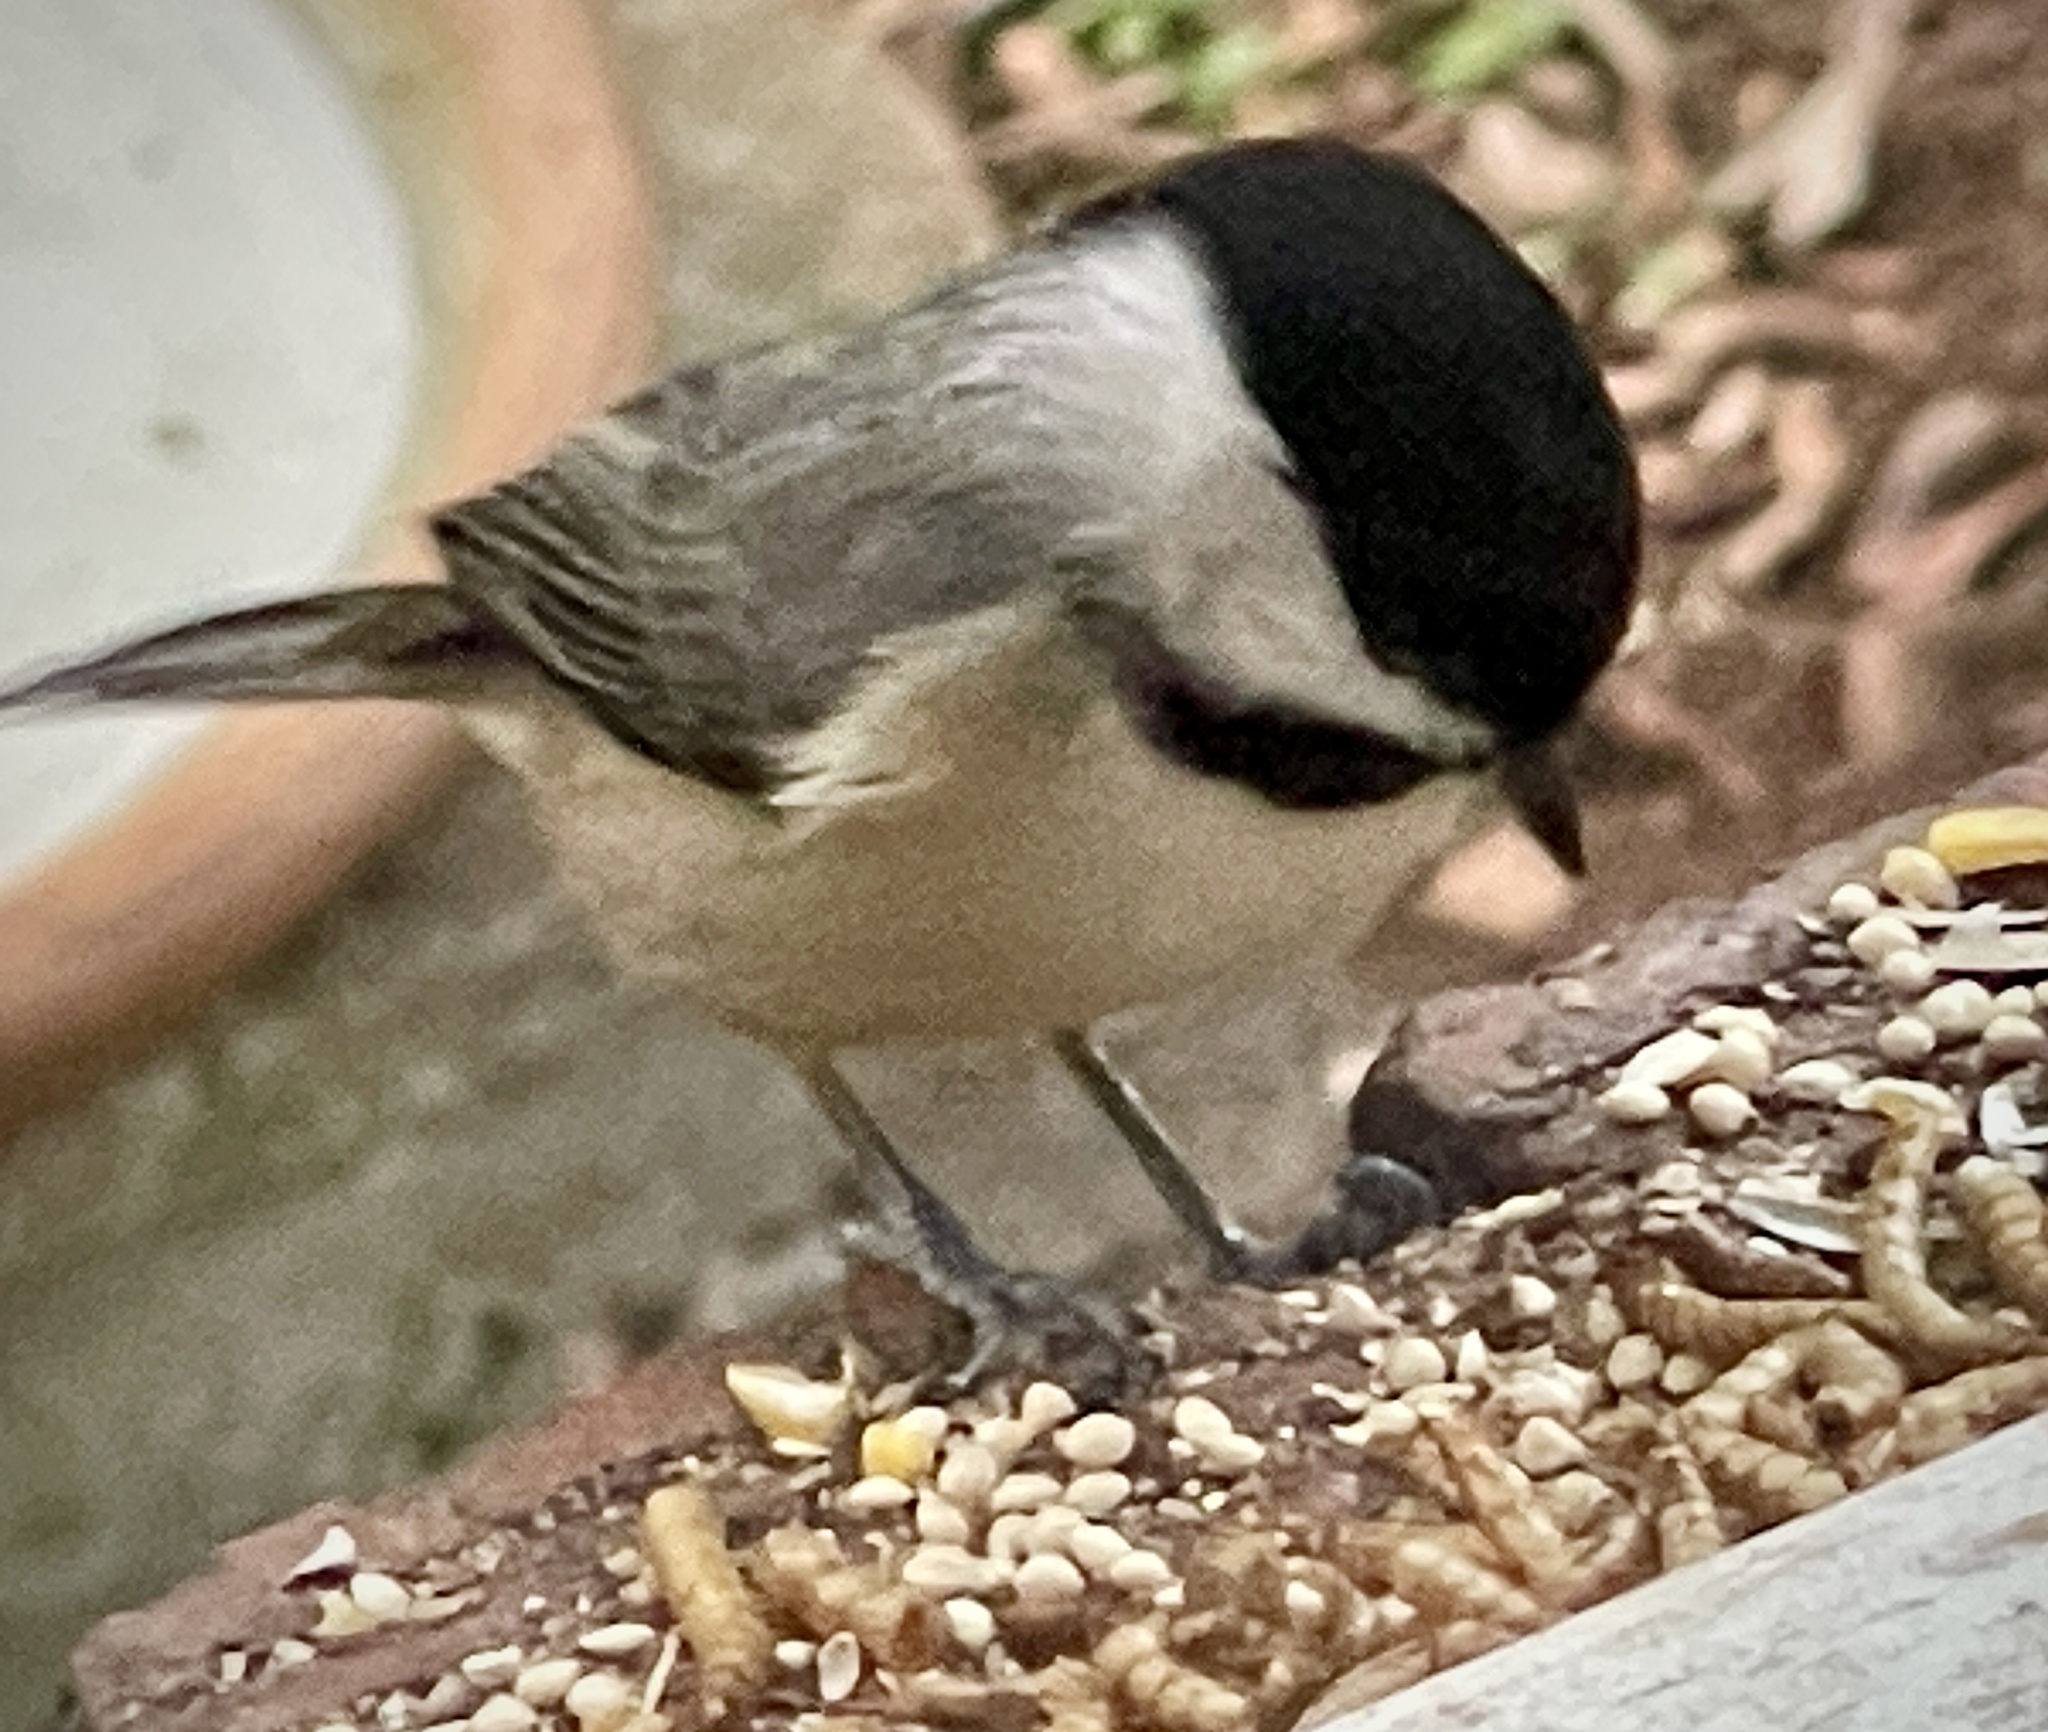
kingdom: Animalia
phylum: Chordata
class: Aves
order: Passeriformes
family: Paridae
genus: Poecile
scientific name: Poecile carolinensis
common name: Carolina chickadee
